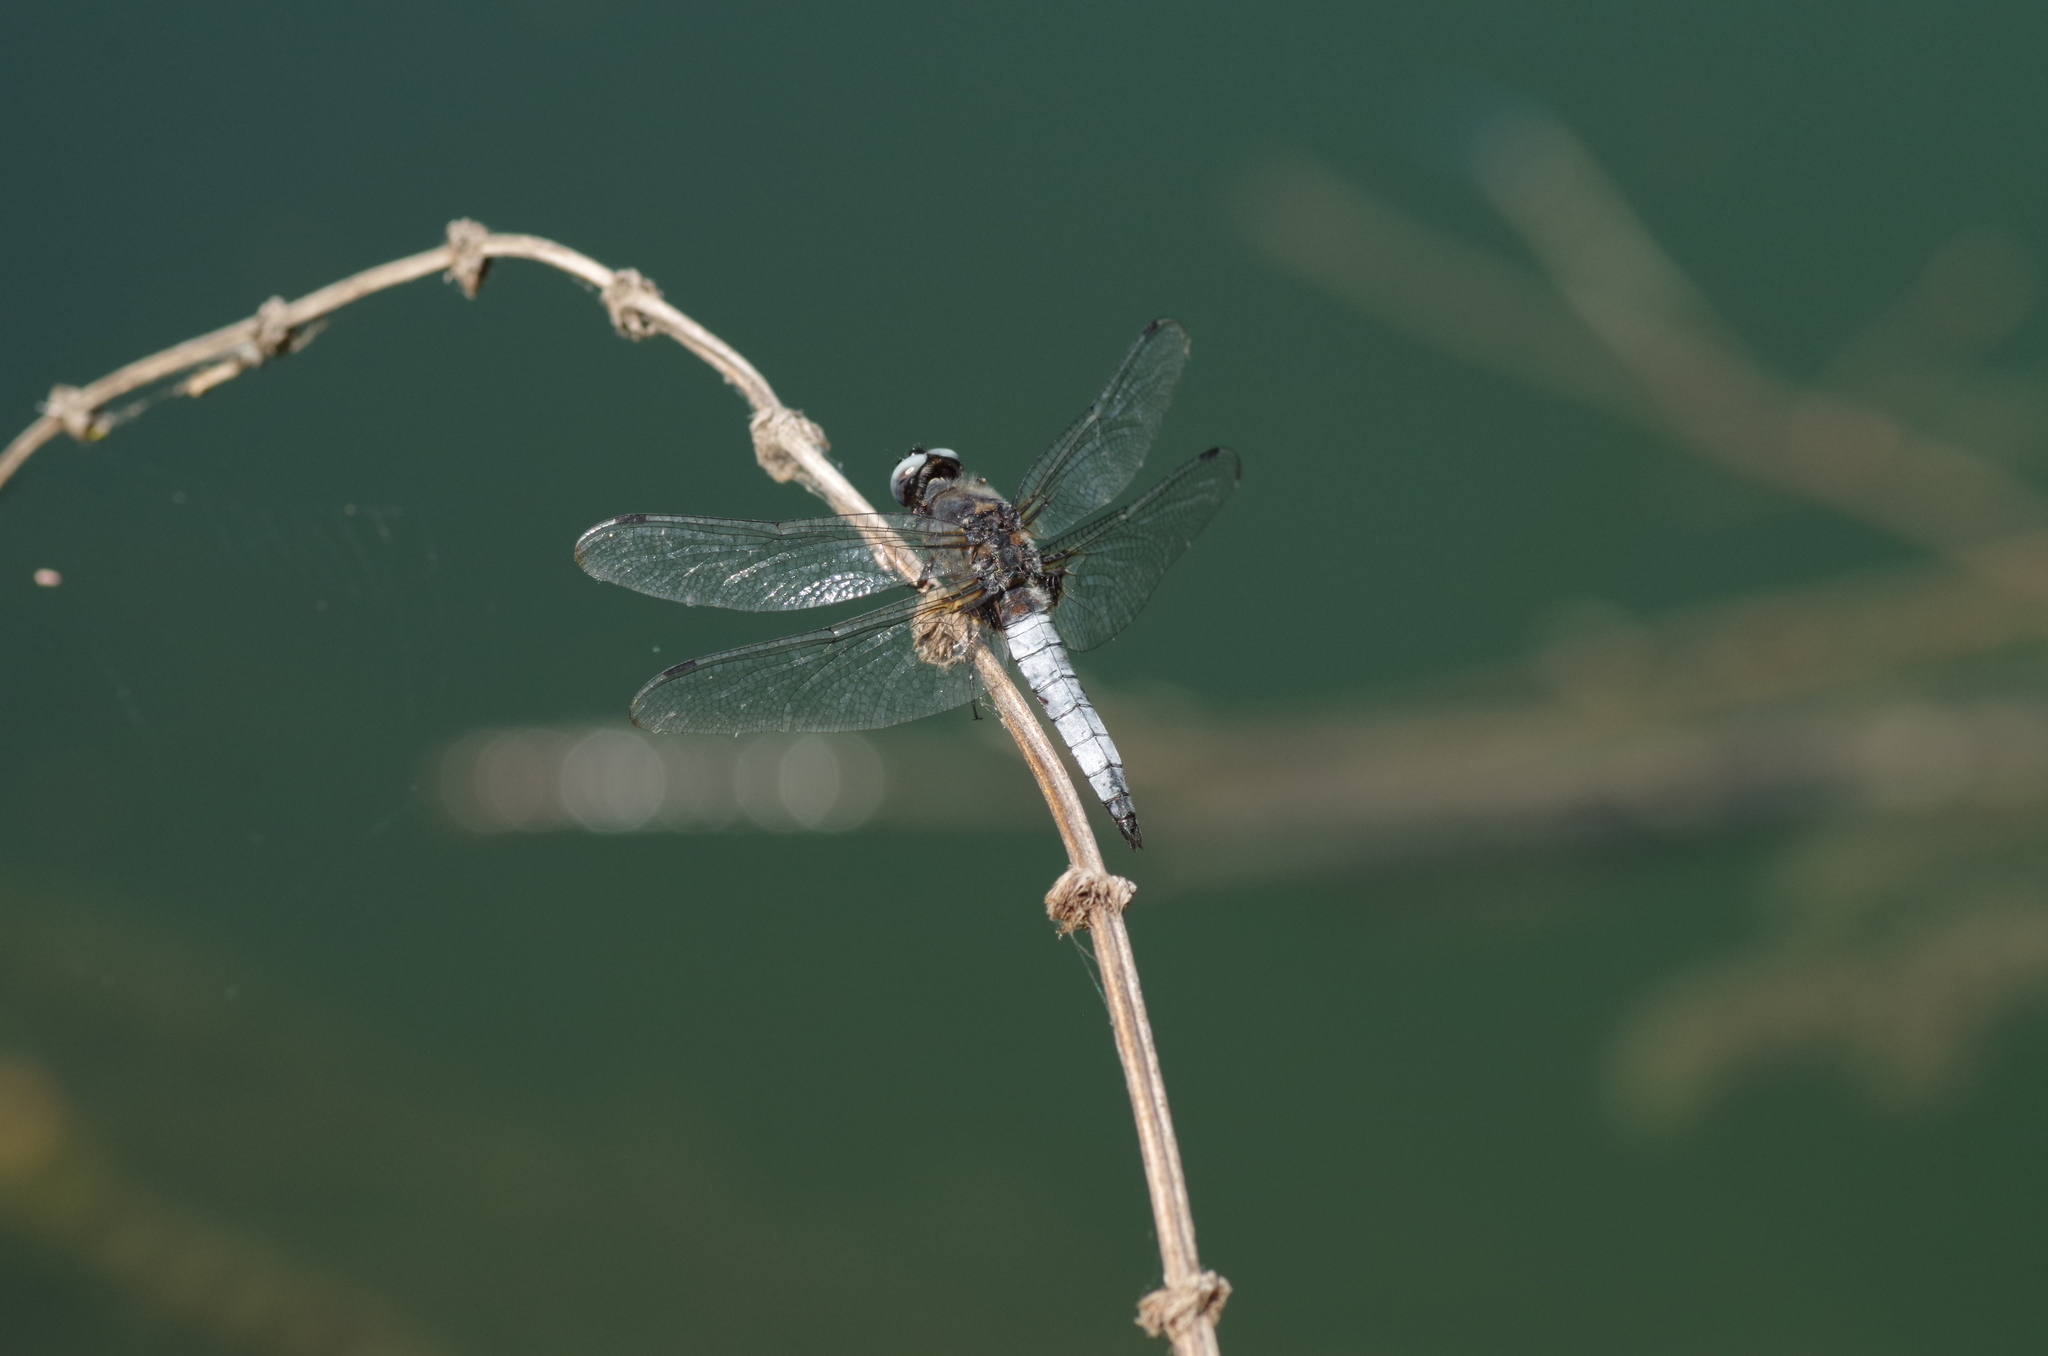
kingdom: Animalia
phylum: Arthropoda
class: Insecta
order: Odonata
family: Libellulidae
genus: Libellula
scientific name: Libellula fulva
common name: Blue chaser
